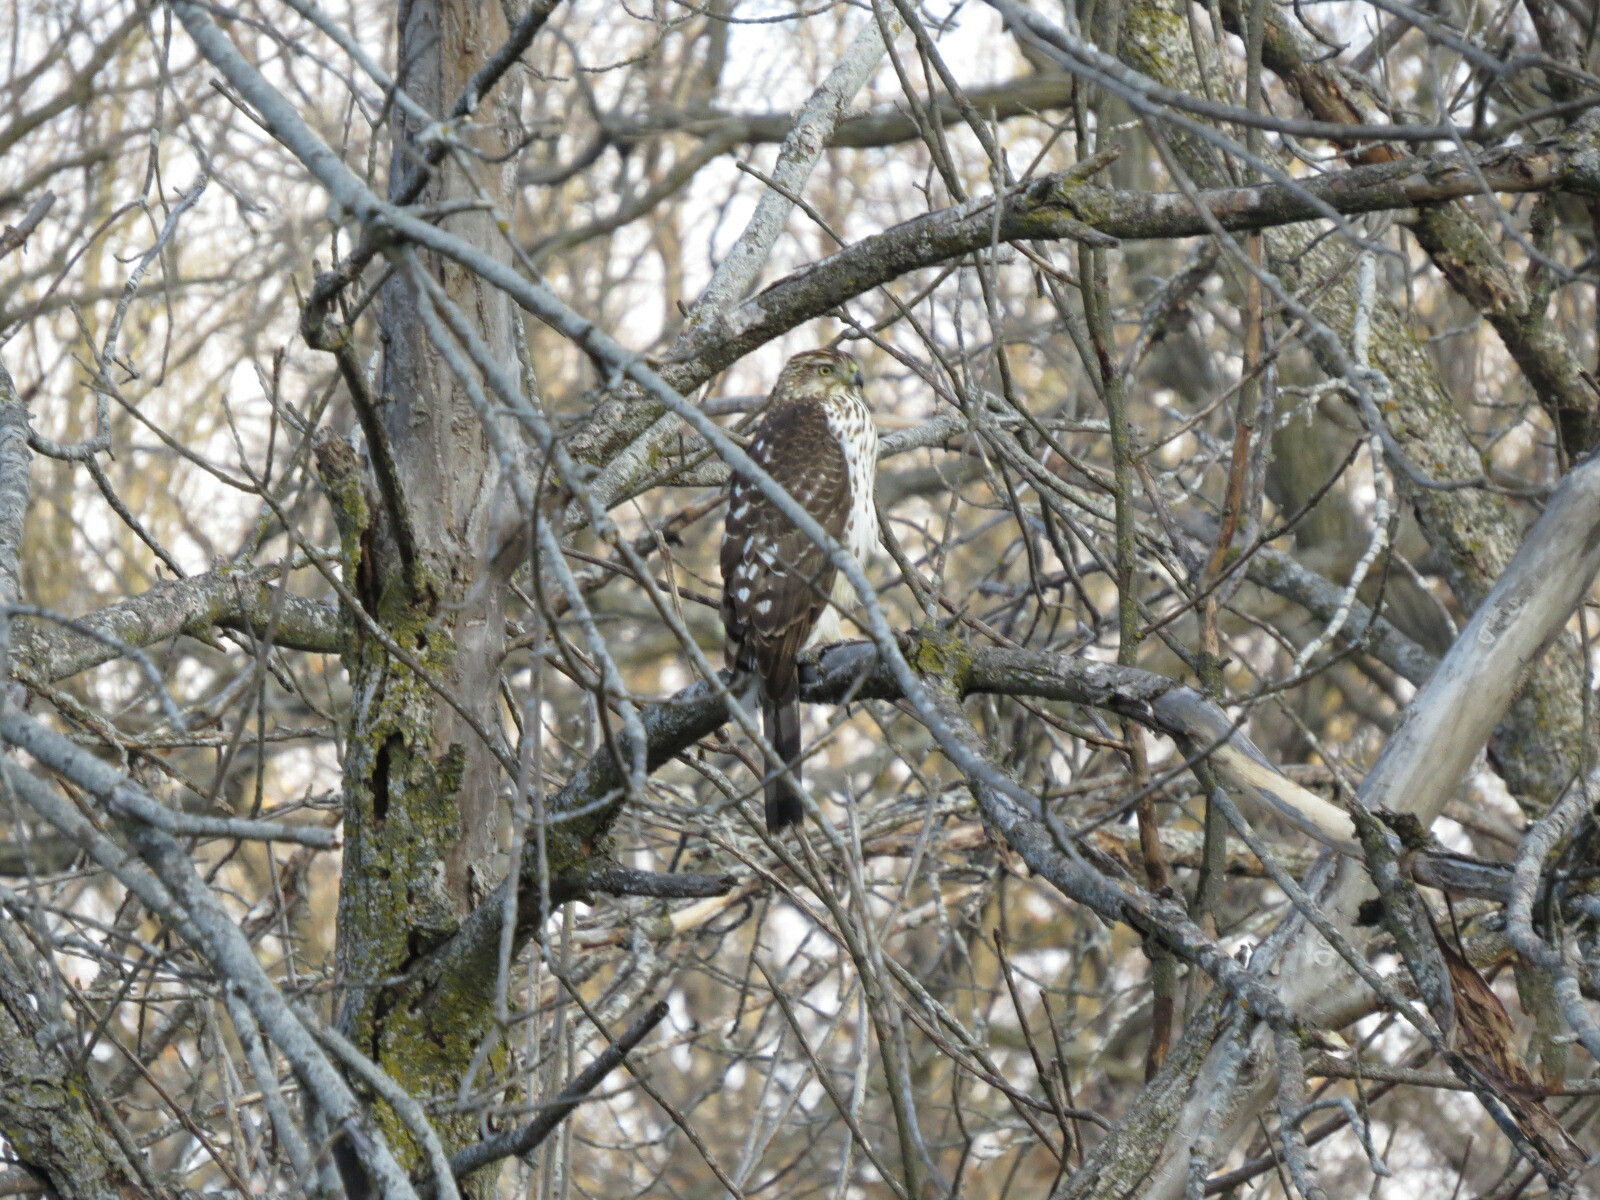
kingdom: Animalia
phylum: Chordata
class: Aves
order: Accipitriformes
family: Accipitridae
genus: Accipiter
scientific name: Accipiter cooperii
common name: Cooper's hawk
